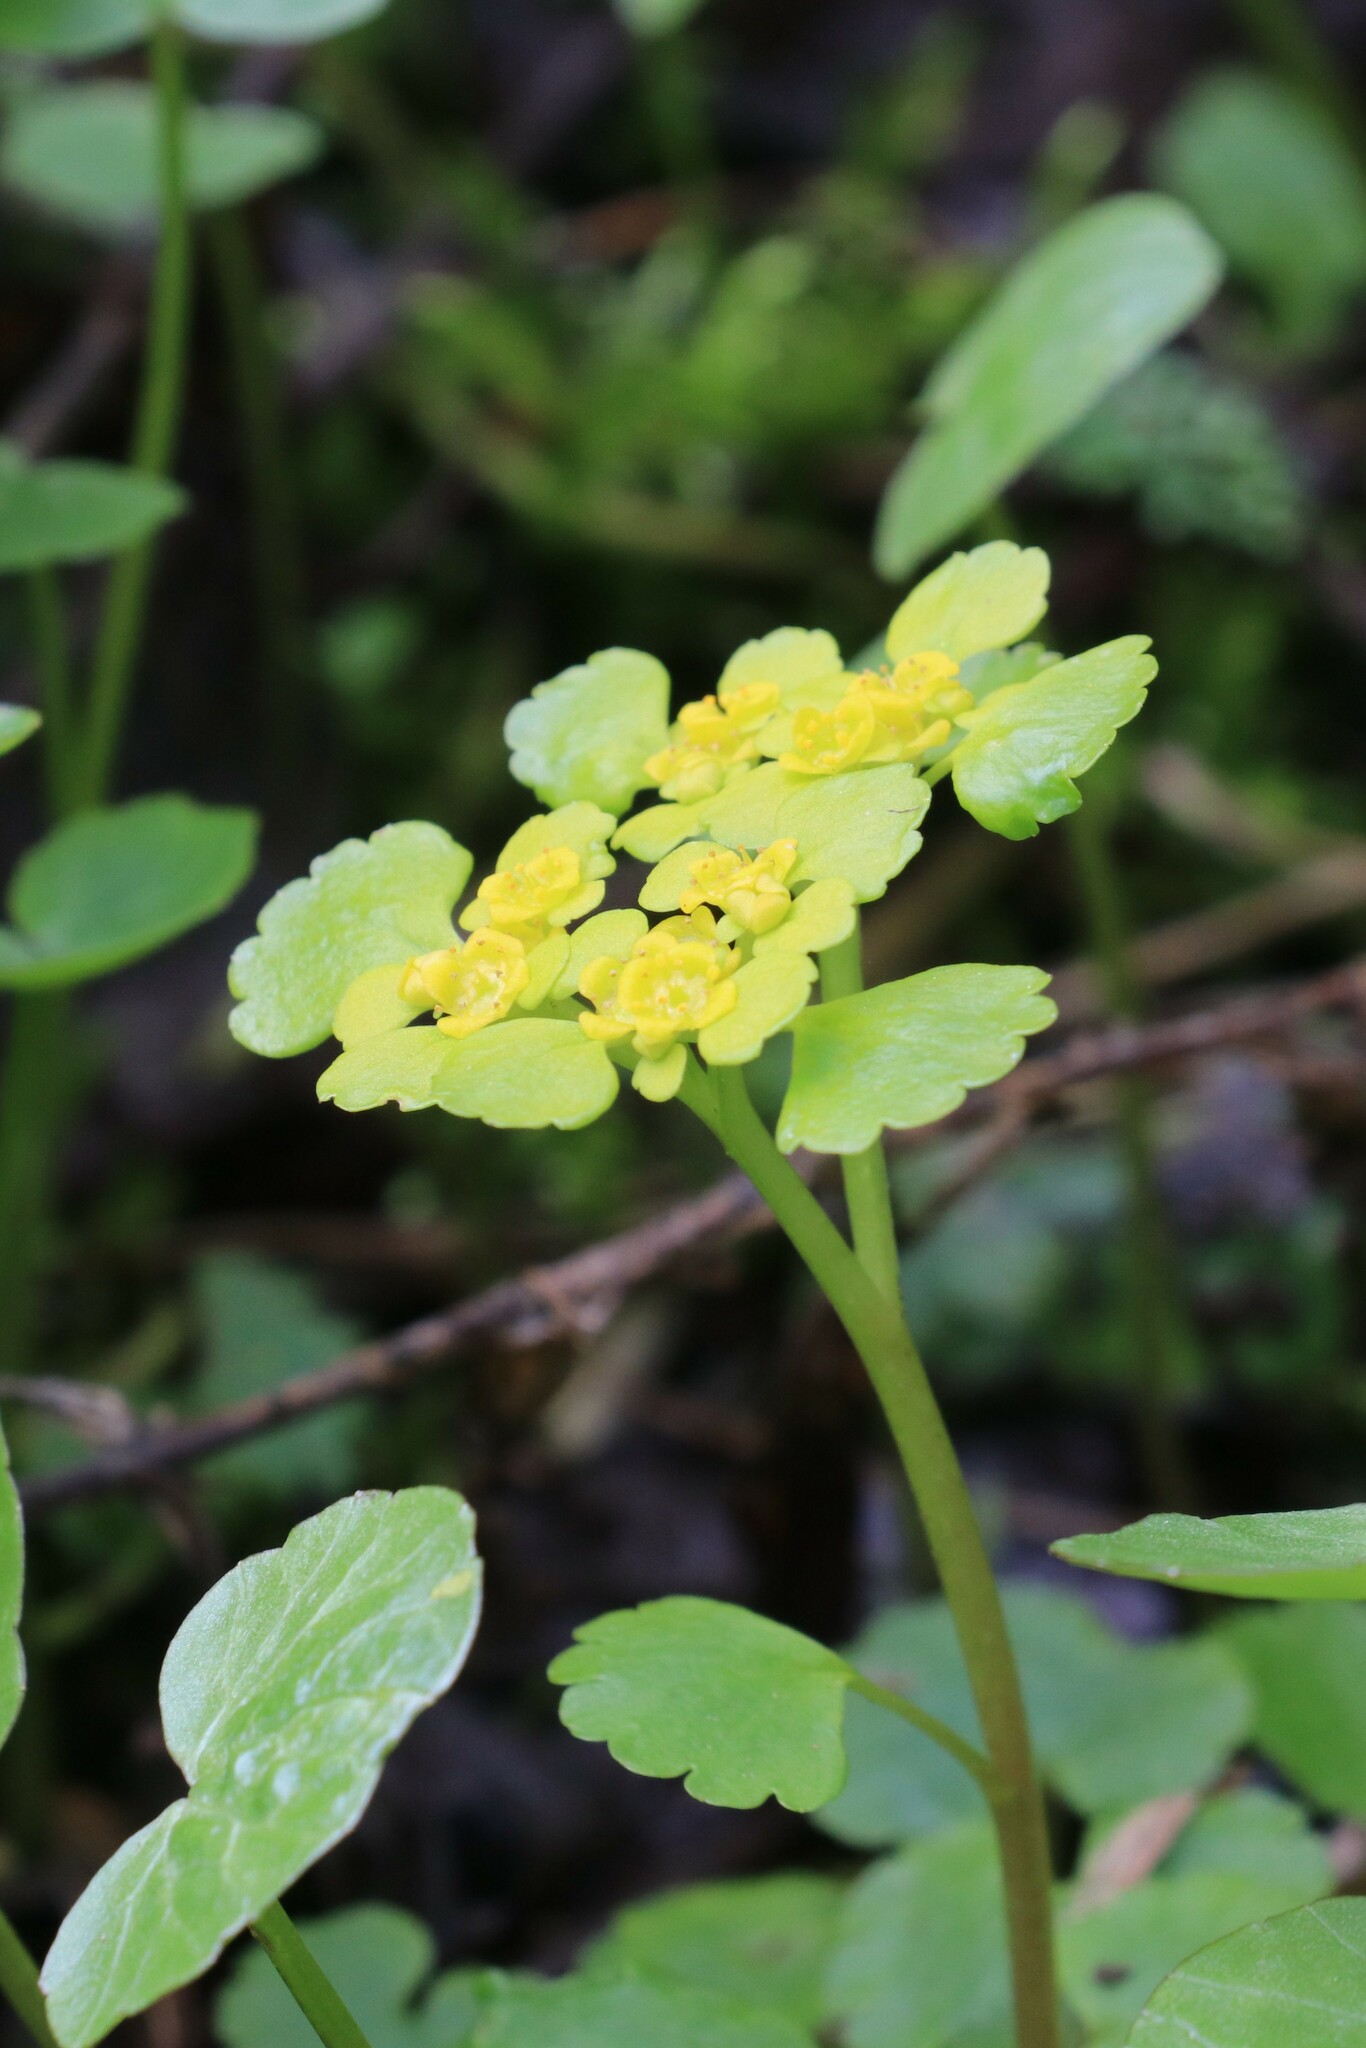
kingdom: Plantae
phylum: Tracheophyta
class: Magnoliopsida
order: Saxifragales
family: Saxifragaceae
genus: Chrysosplenium
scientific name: Chrysosplenium alternifolium
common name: Alternate-leaved golden-saxifrage
